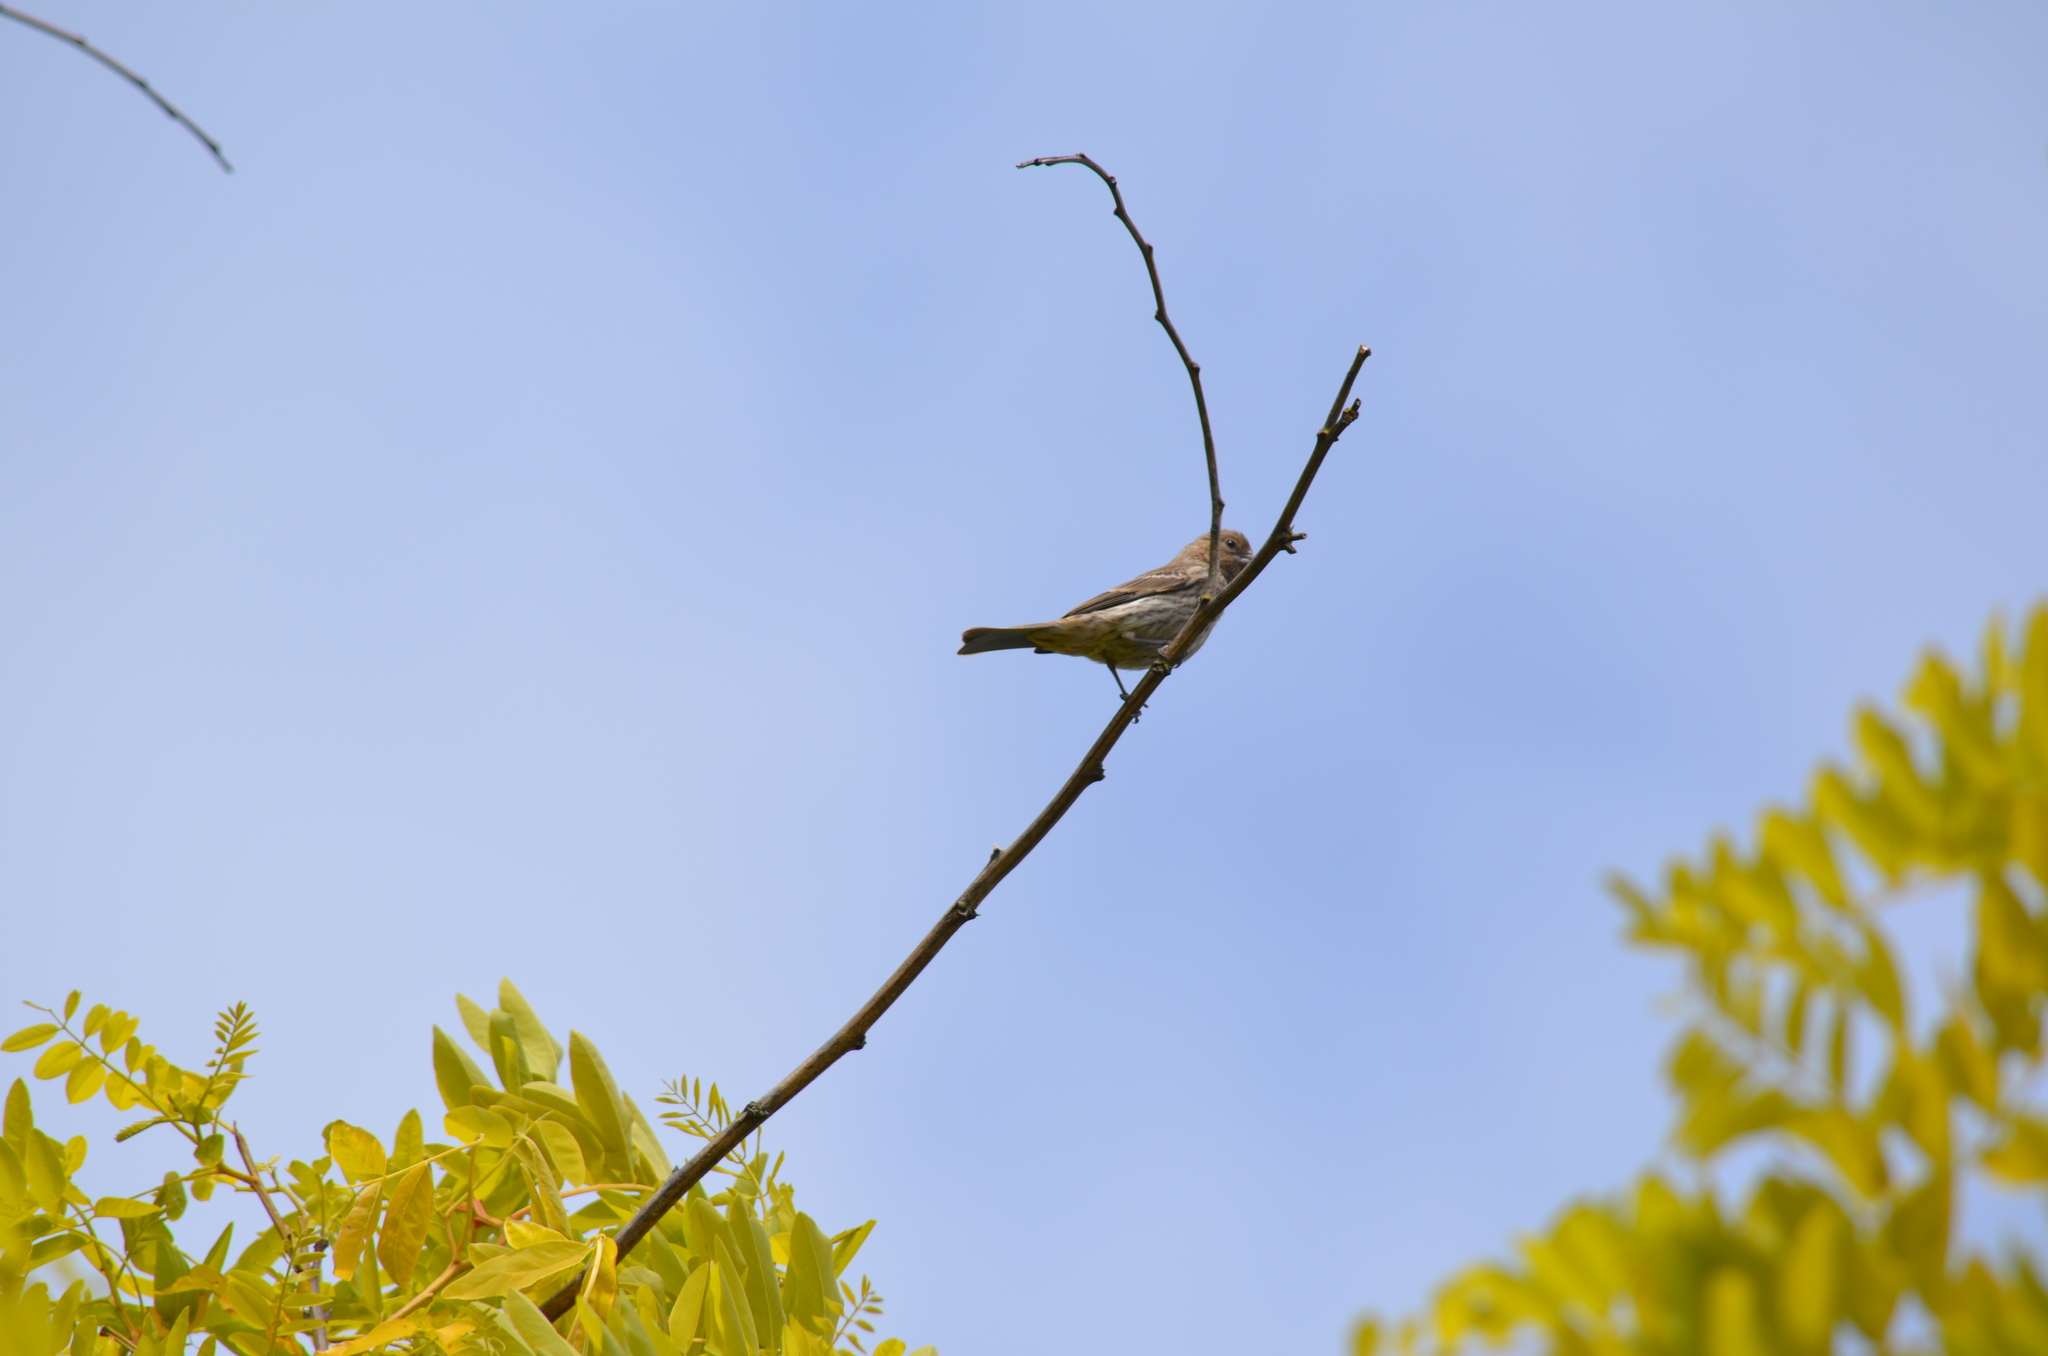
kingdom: Animalia
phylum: Chordata
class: Aves
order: Passeriformes
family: Fringillidae
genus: Haemorhous
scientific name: Haemorhous mexicanus
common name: House finch
